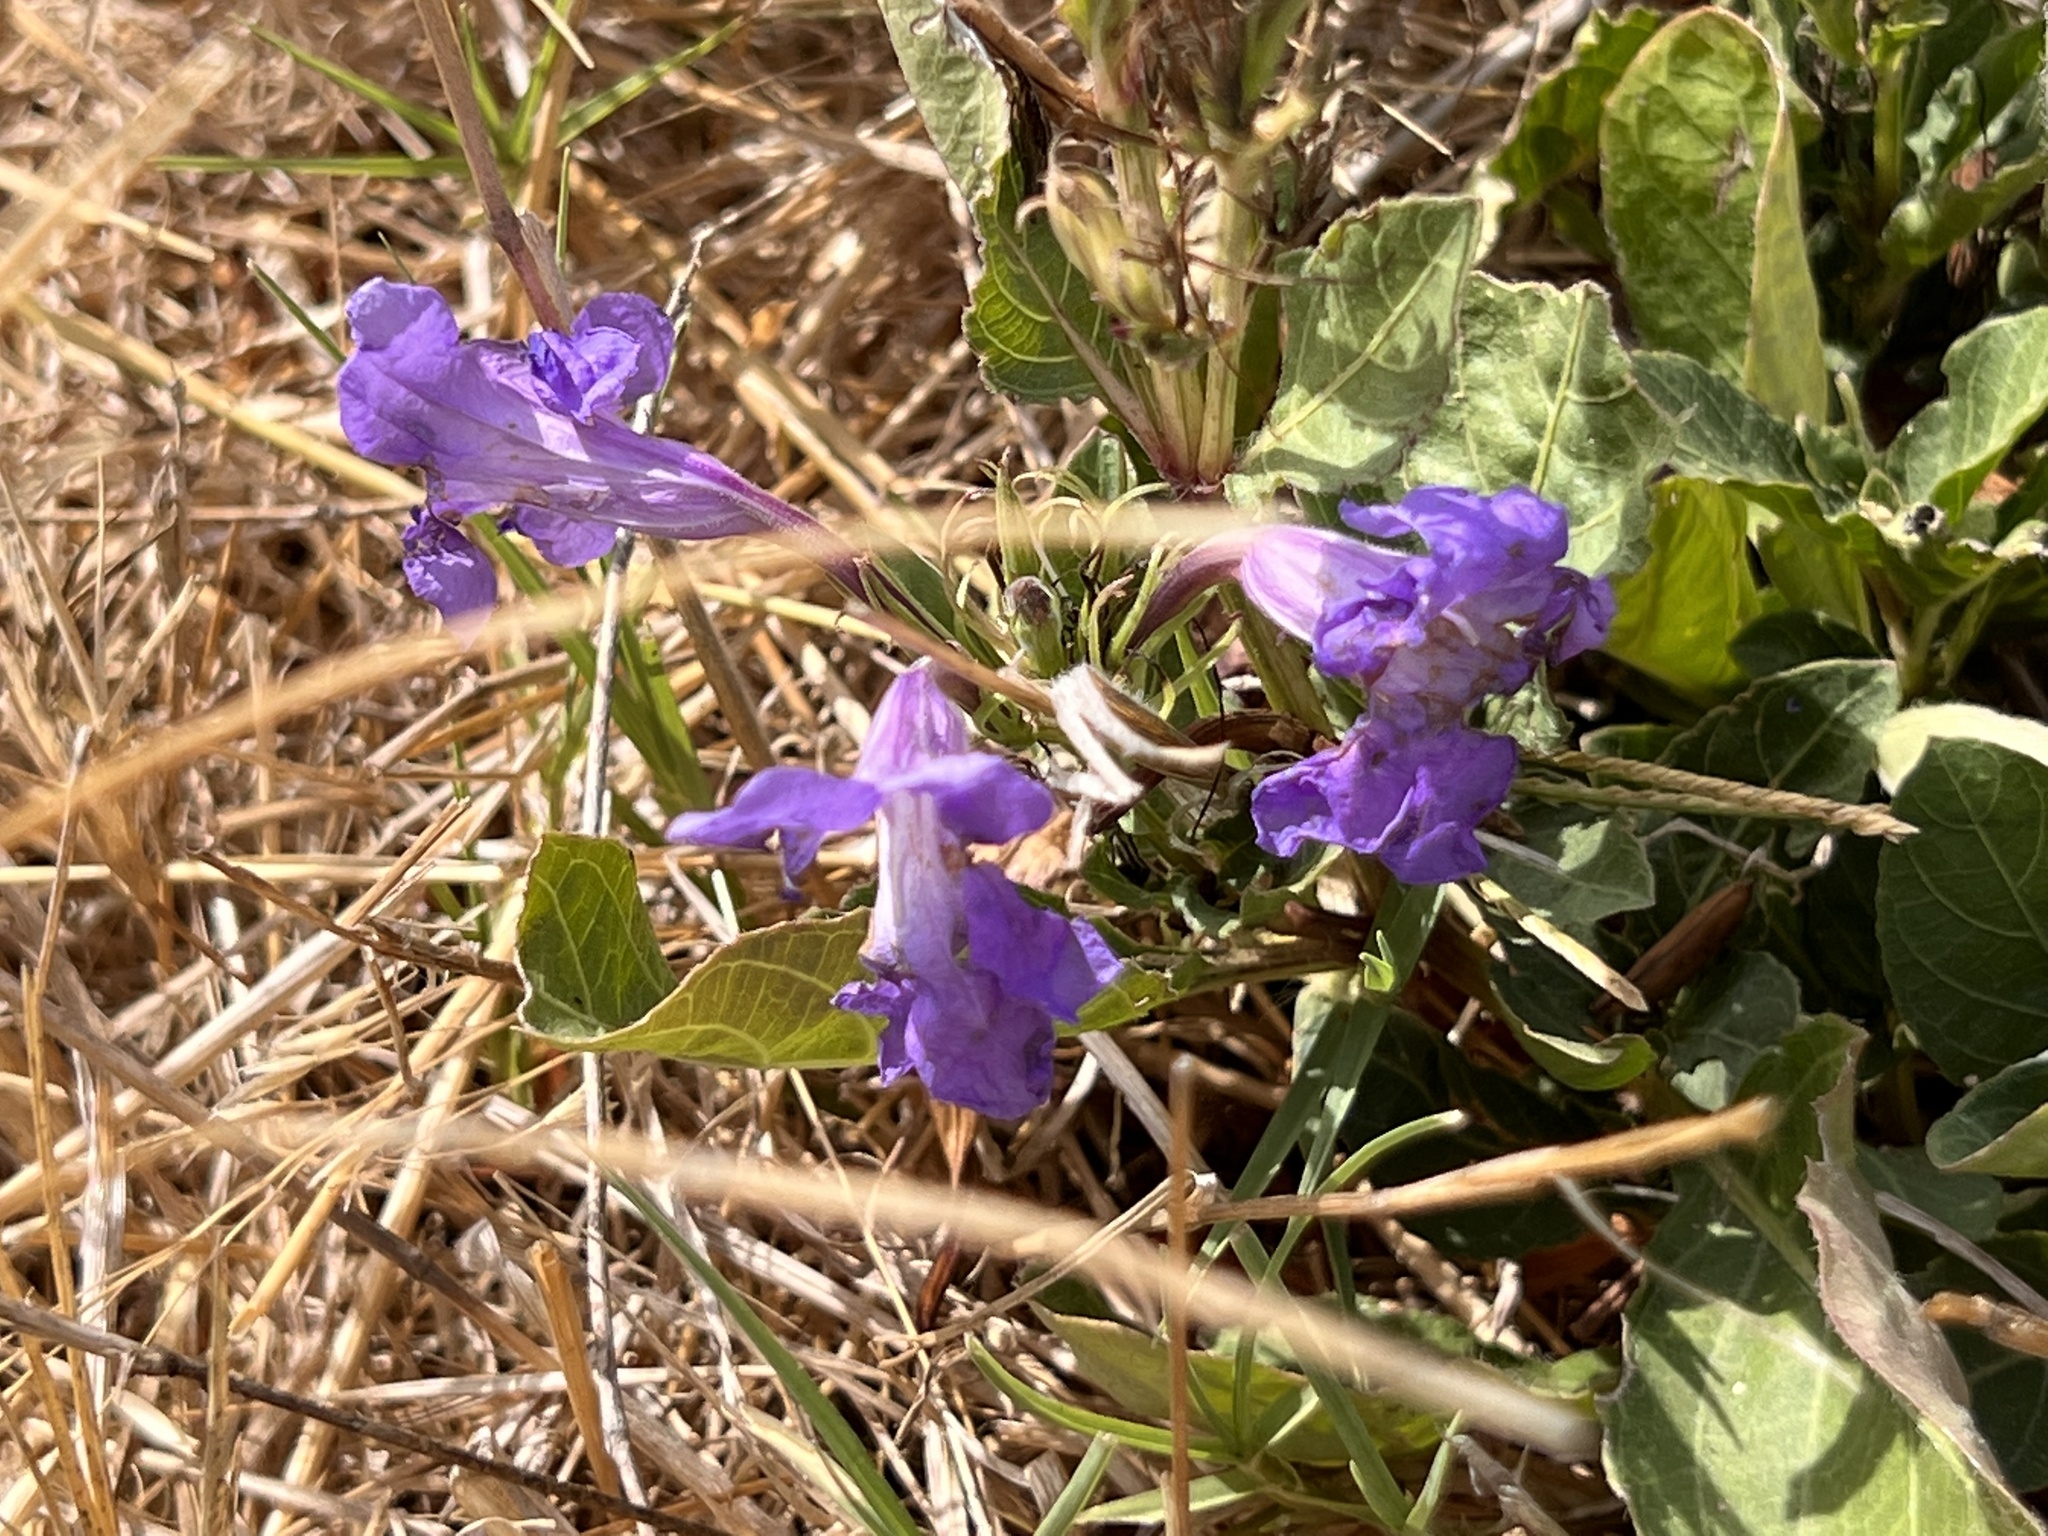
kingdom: Plantae
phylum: Tracheophyta
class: Magnoliopsida
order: Lamiales
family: Acanthaceae
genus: Ruellia
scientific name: Ruellia ciliatiflora
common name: Hairyflower wild petunia
